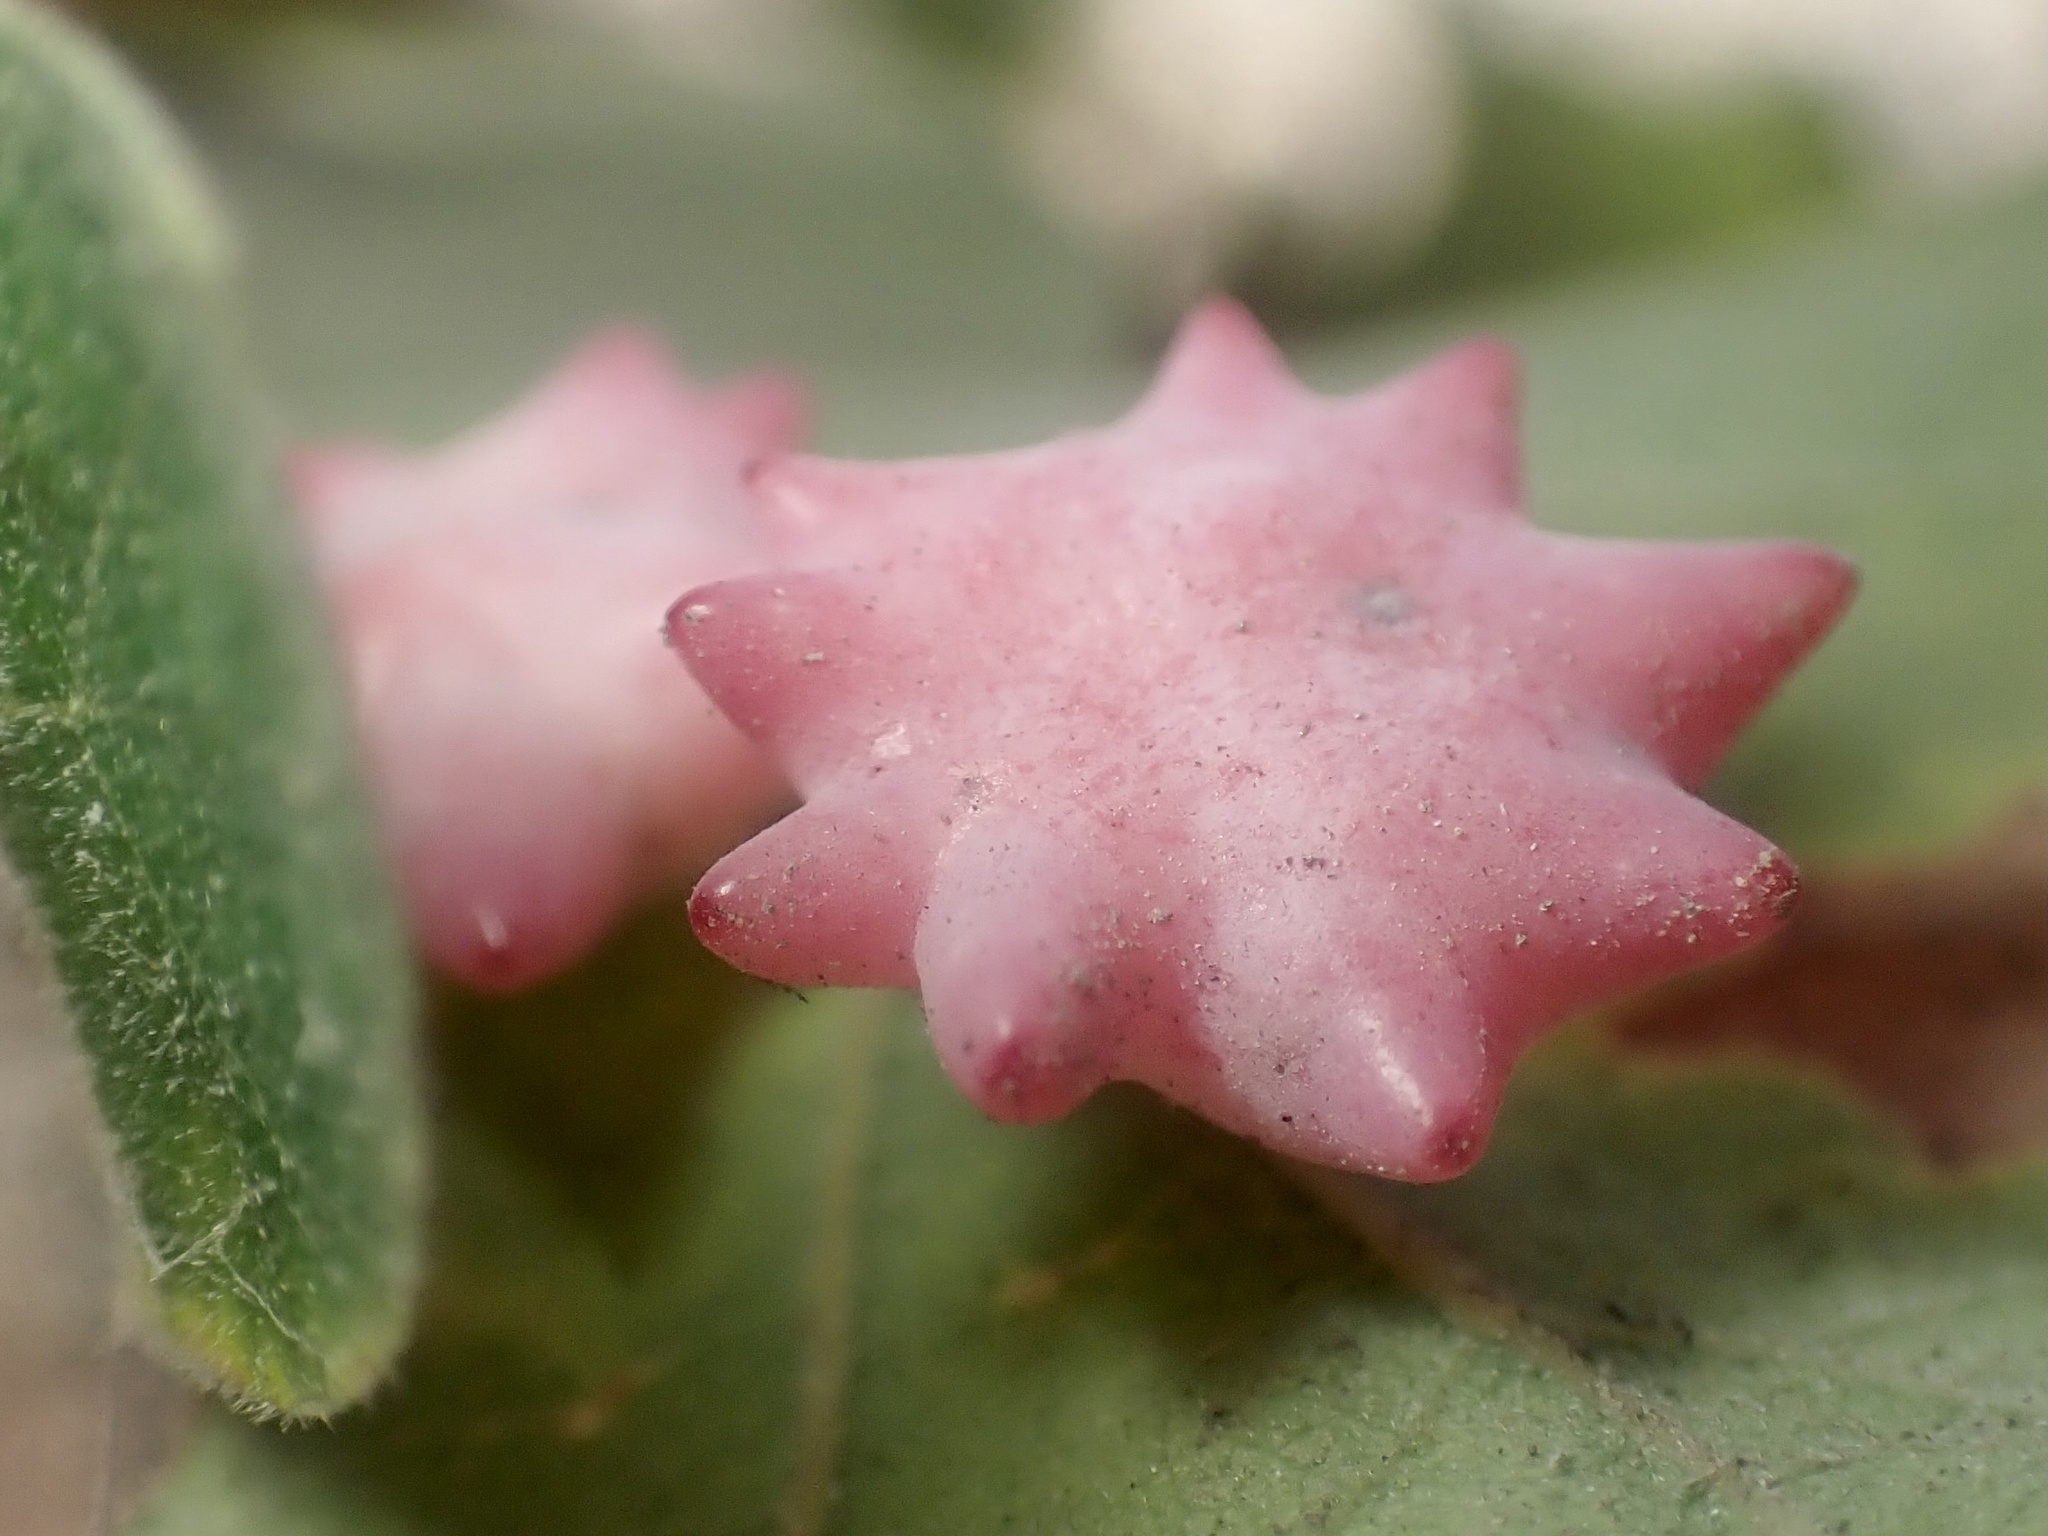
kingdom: Animalia
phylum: Arthropoda
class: Insecta
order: Hymenoptera
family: Cynipidae
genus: Cynips
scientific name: Cynips douglasi
